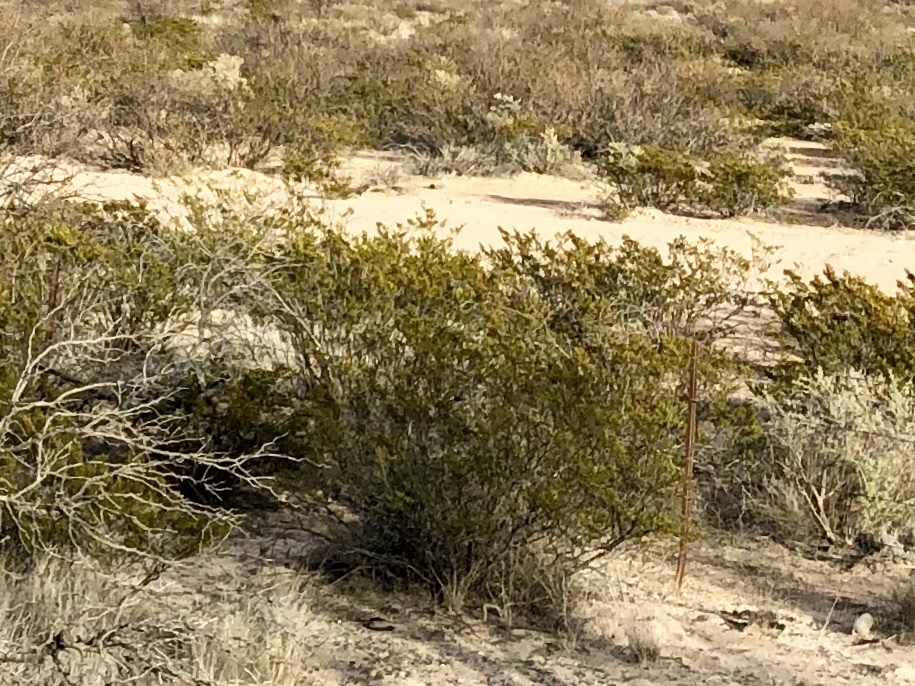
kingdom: Plantae
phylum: Tracheophyta
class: Magnoliopsida
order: Zygophyllales
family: Zygophyllaceae
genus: Larrea
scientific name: Larrea tridentata
